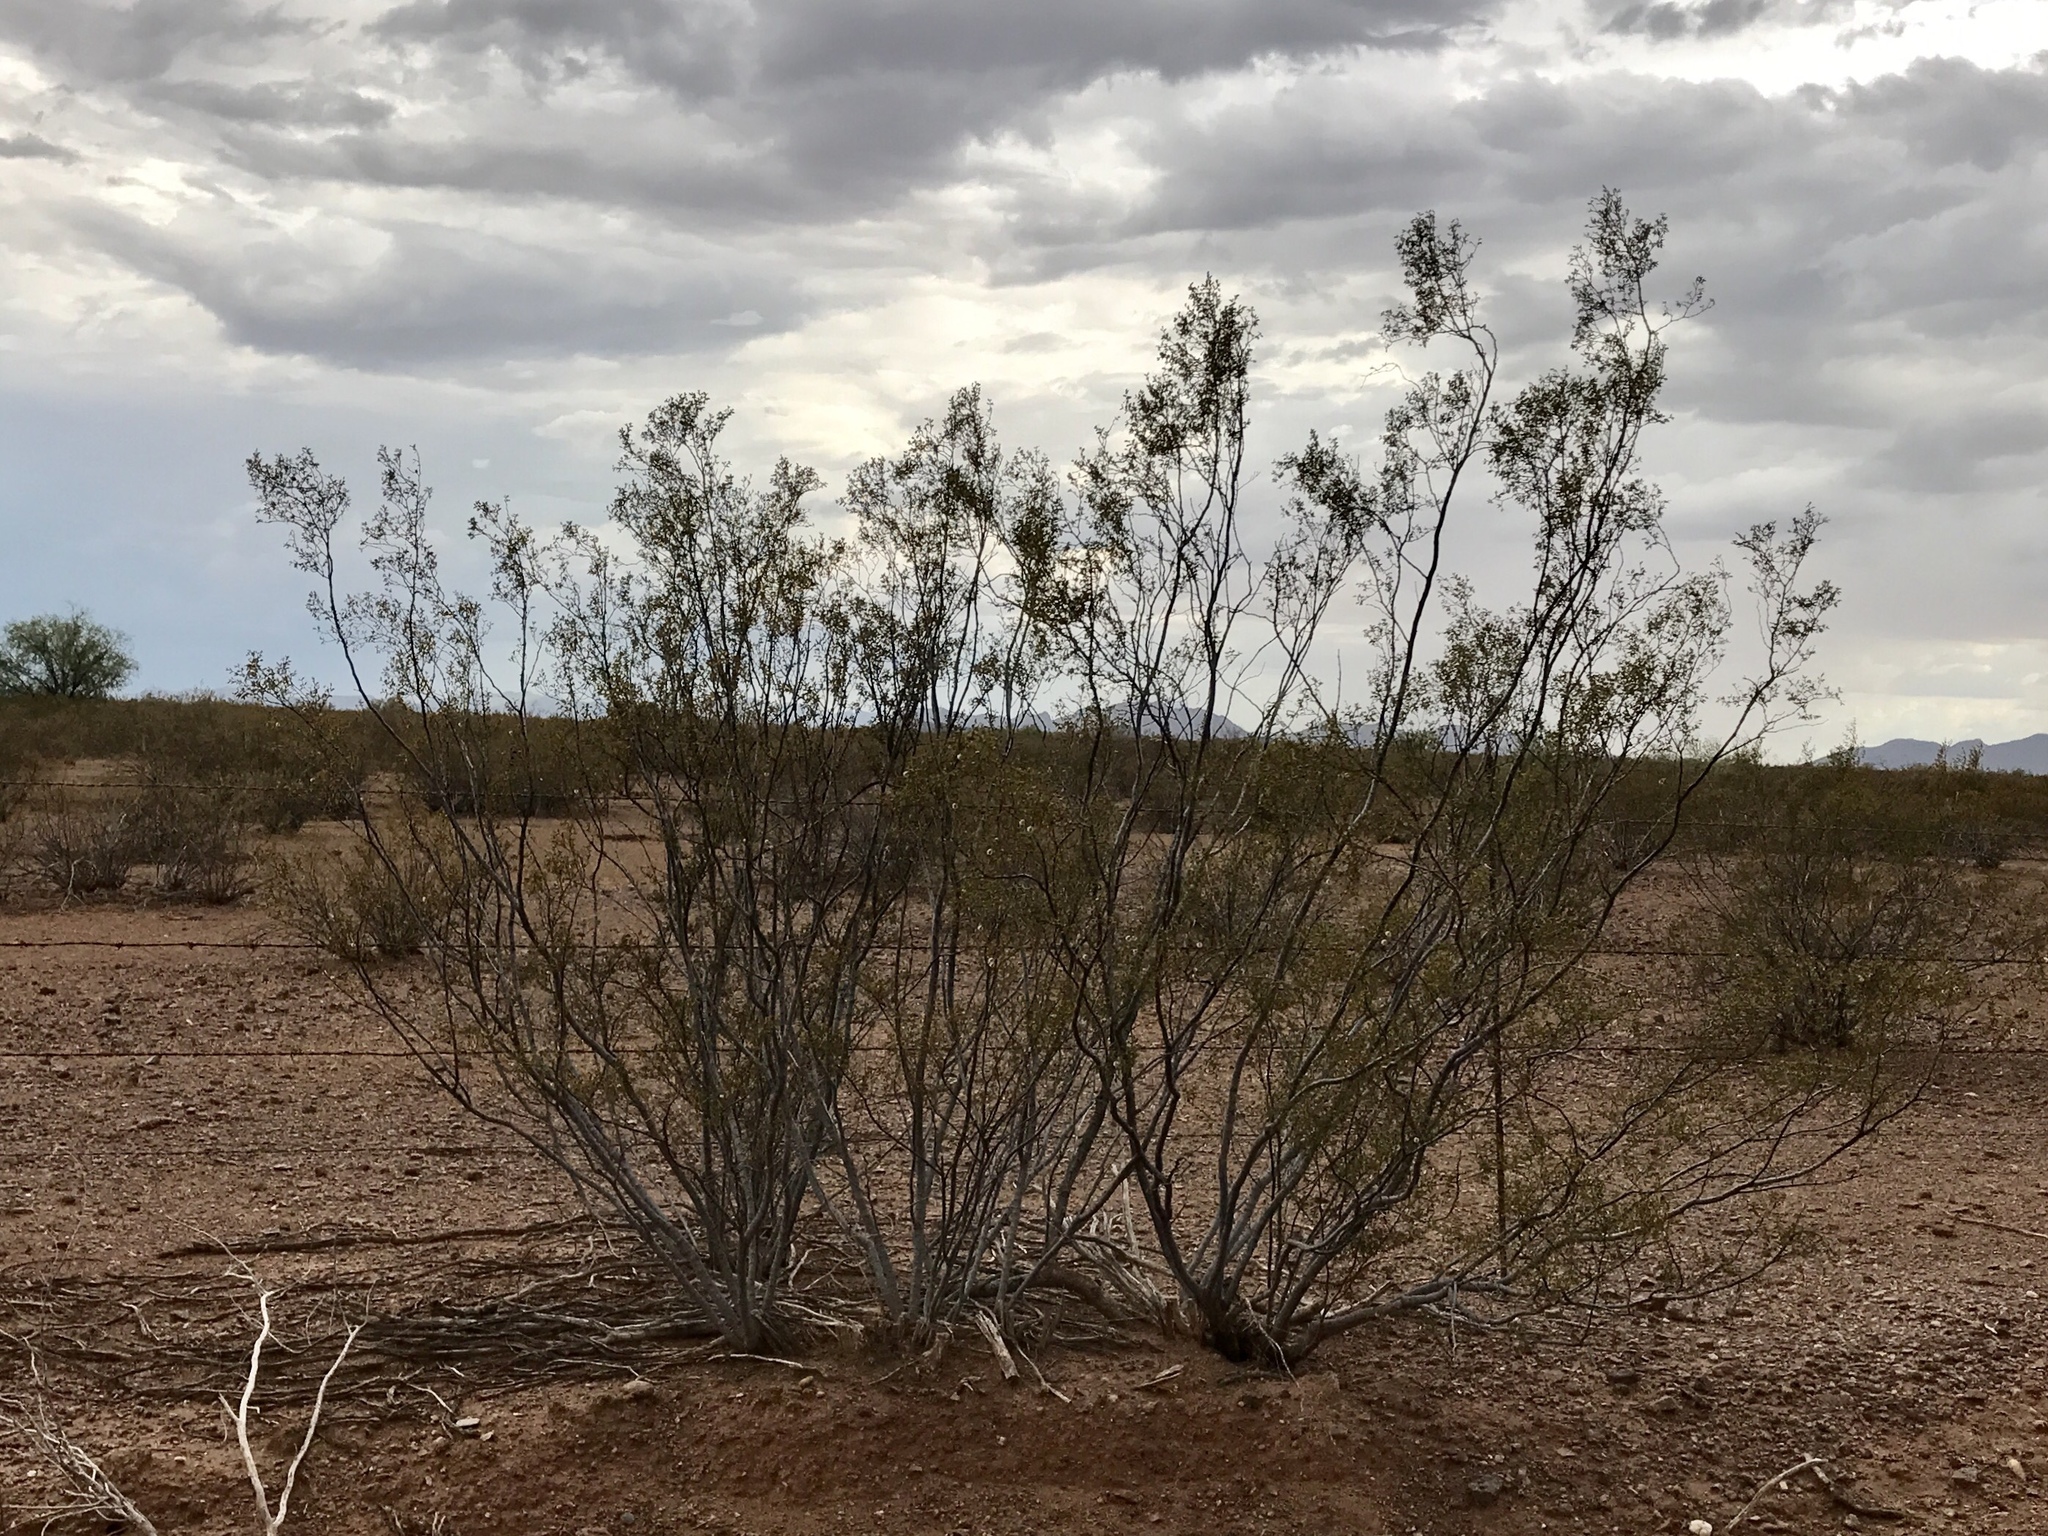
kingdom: Plantae
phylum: Tracheophyta
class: Magnoliopsida
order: Zygophyllales
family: Zygophyllaceae
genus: Larrea
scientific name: Larrea tridentata
